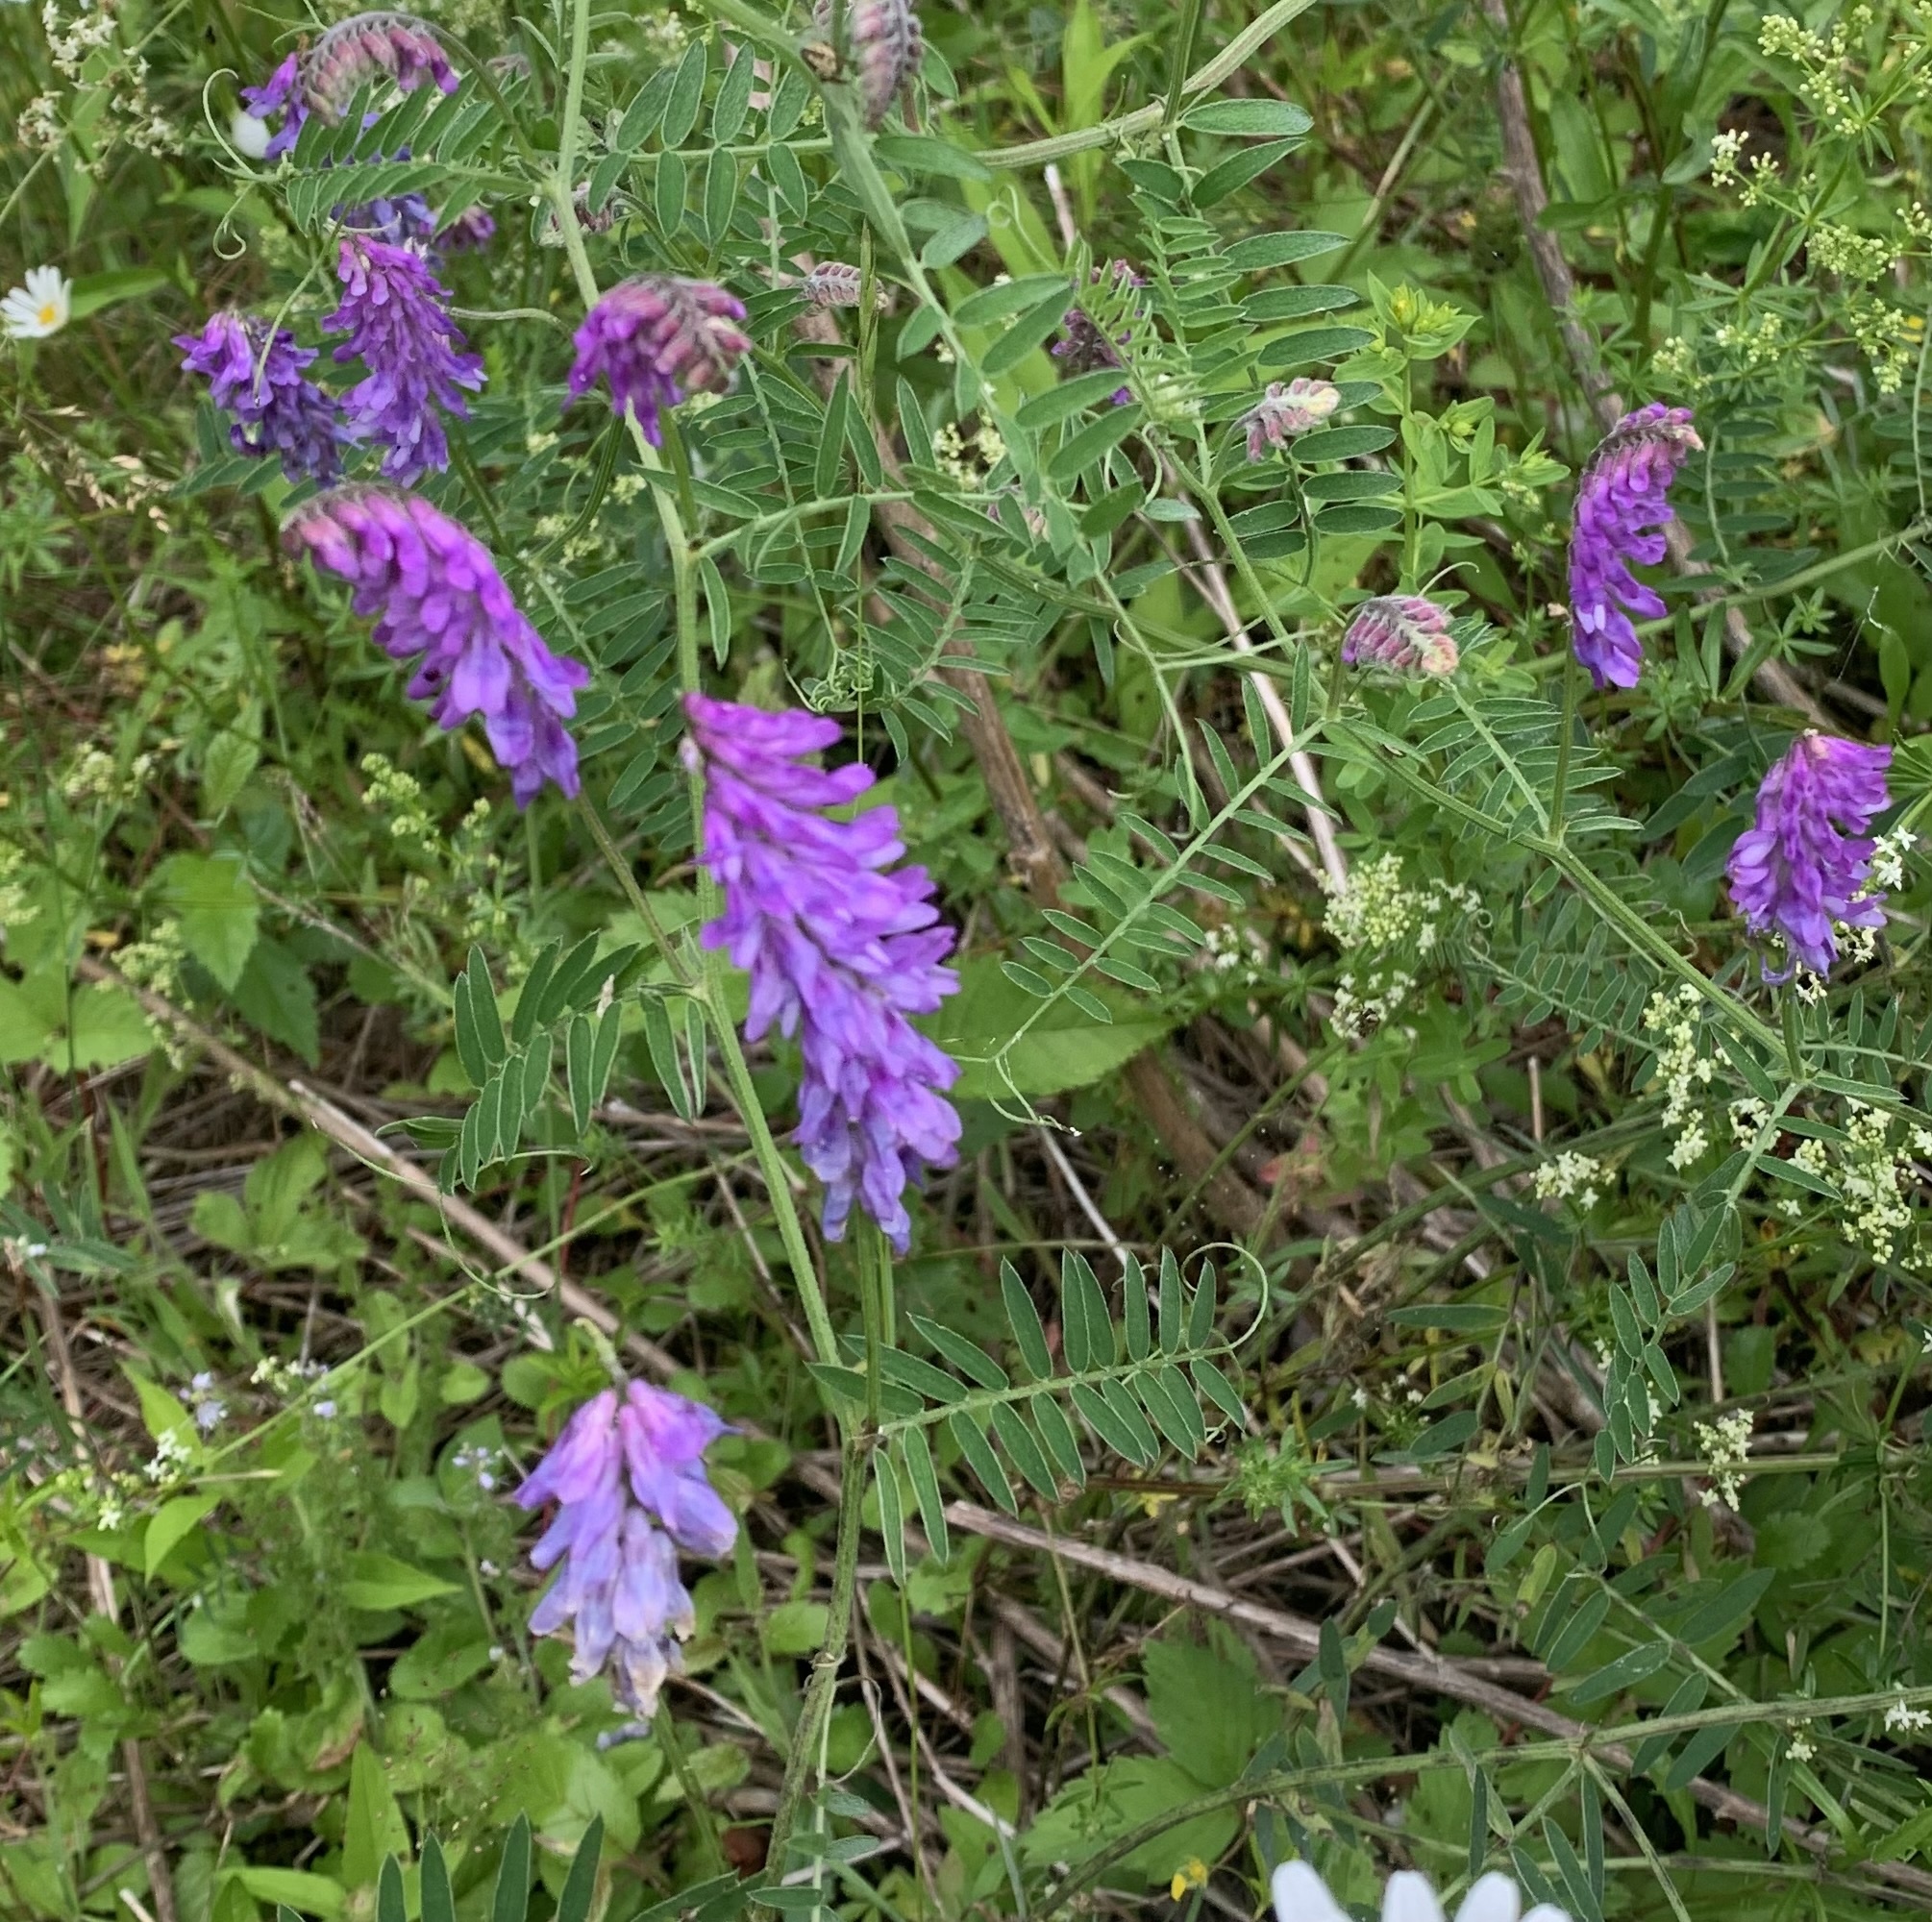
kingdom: Plantae
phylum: Tracheophyta
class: Magnoliopsida
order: Fabales
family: Fabaceae
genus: Vicia
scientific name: Vicia cracca
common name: Bird vetch
